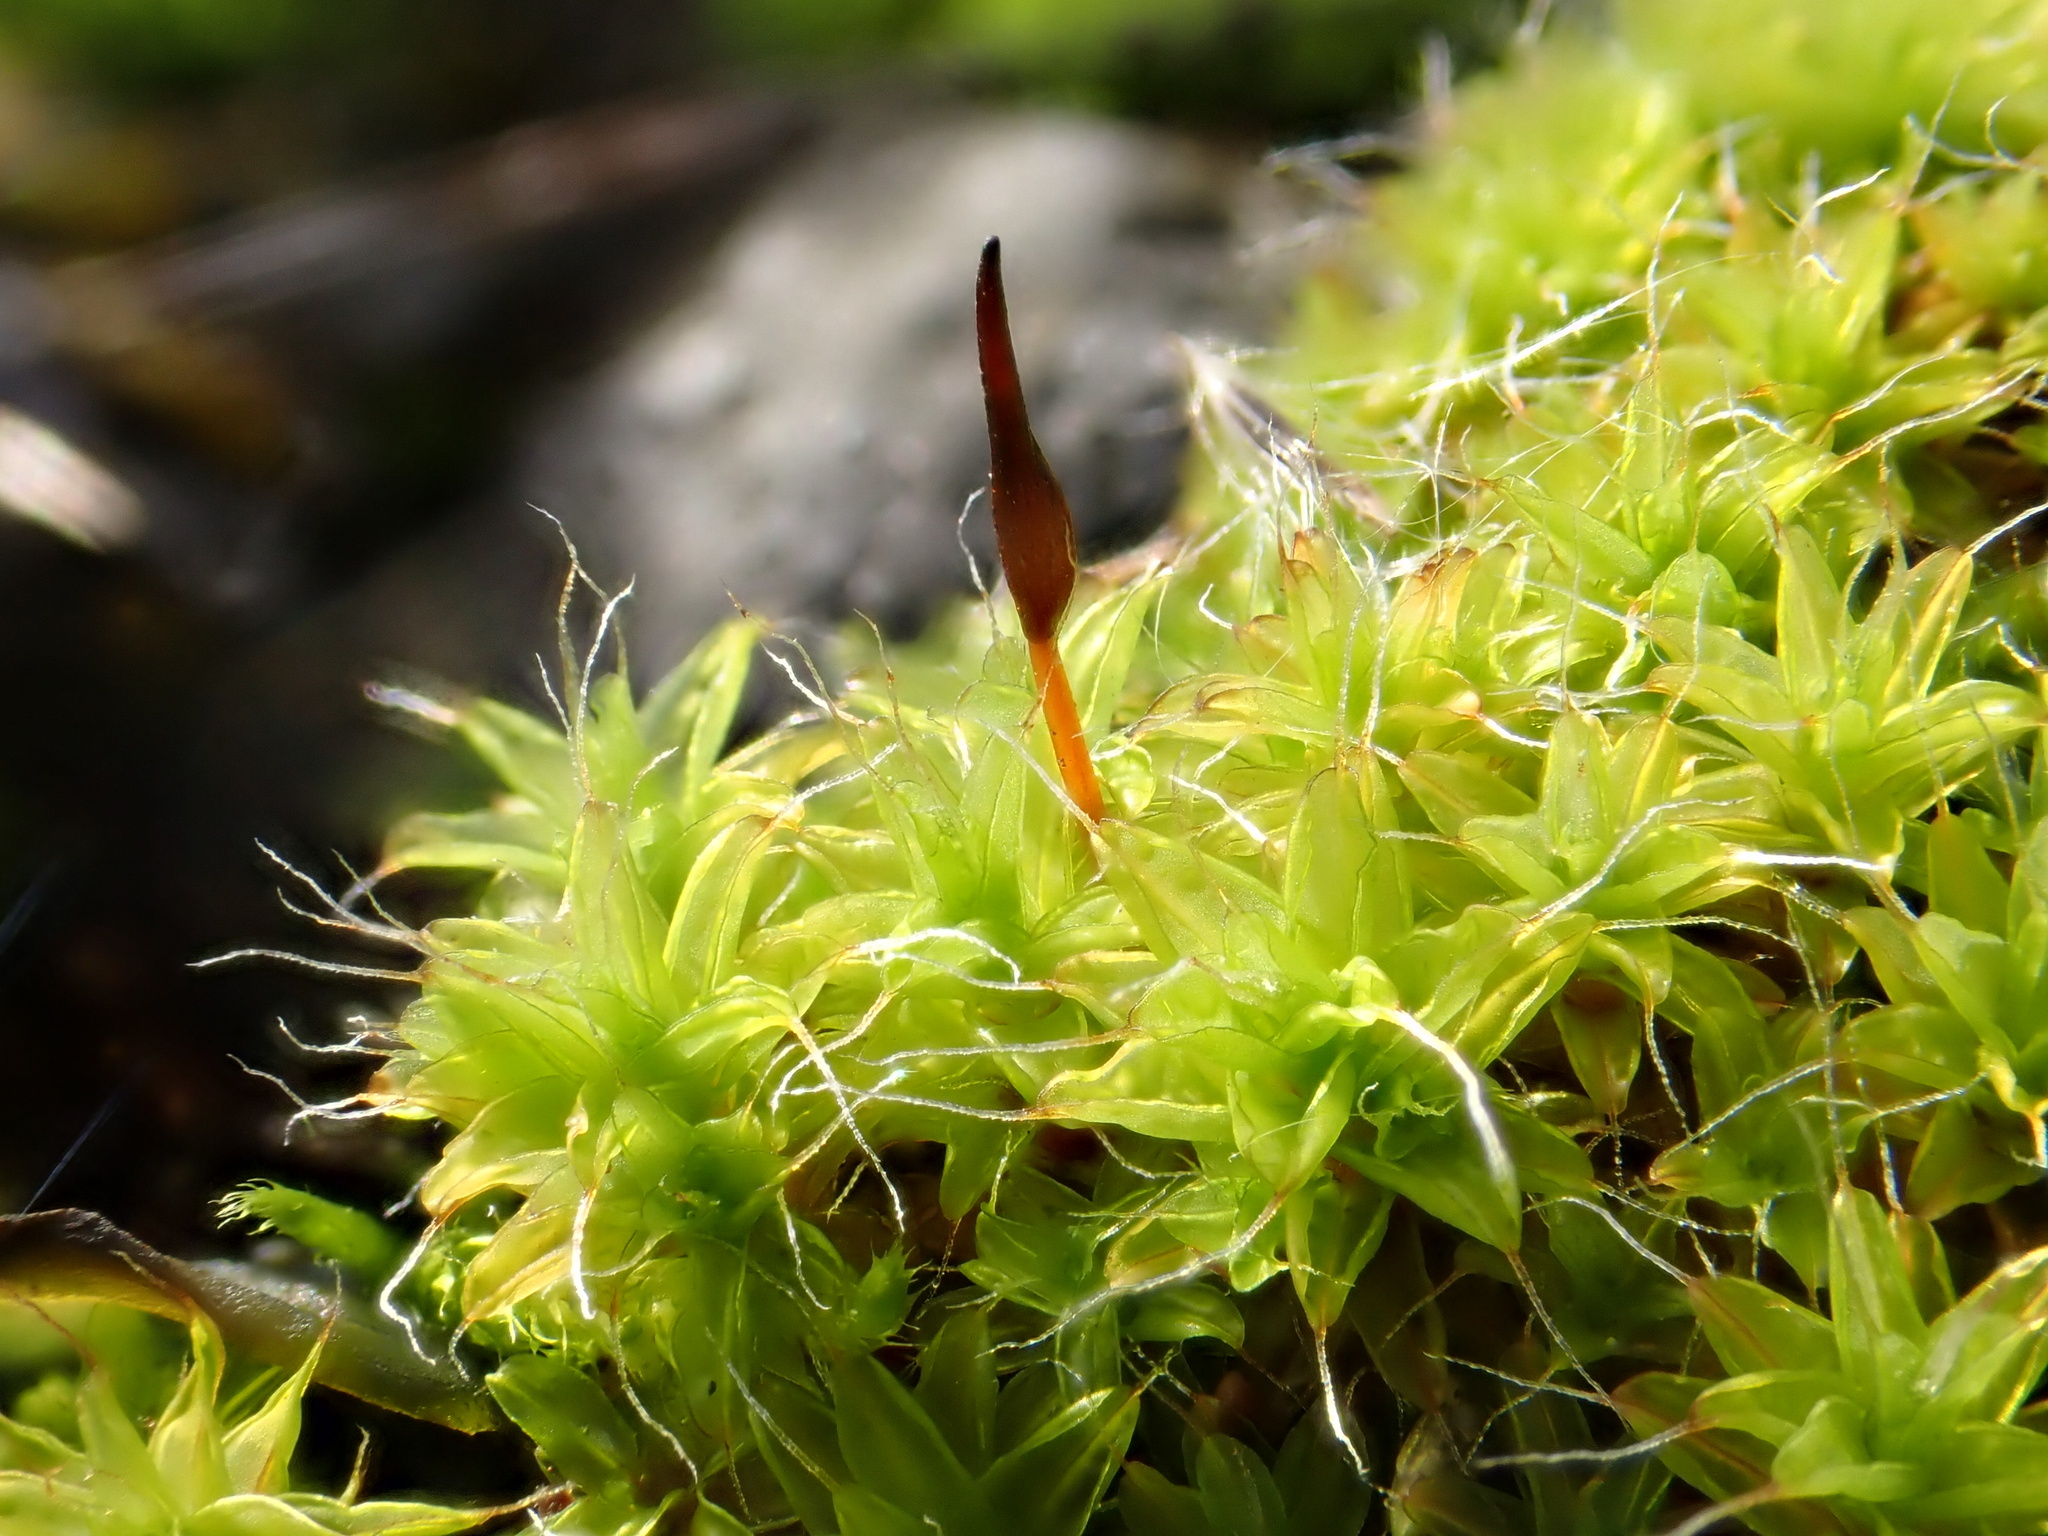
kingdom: Plantae
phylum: Bryophyta
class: Bryopsida
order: Pottiales
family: Pottiaceae
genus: Syntrichia
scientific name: Syntrichia ruralis
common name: Sidewalk screw moss
